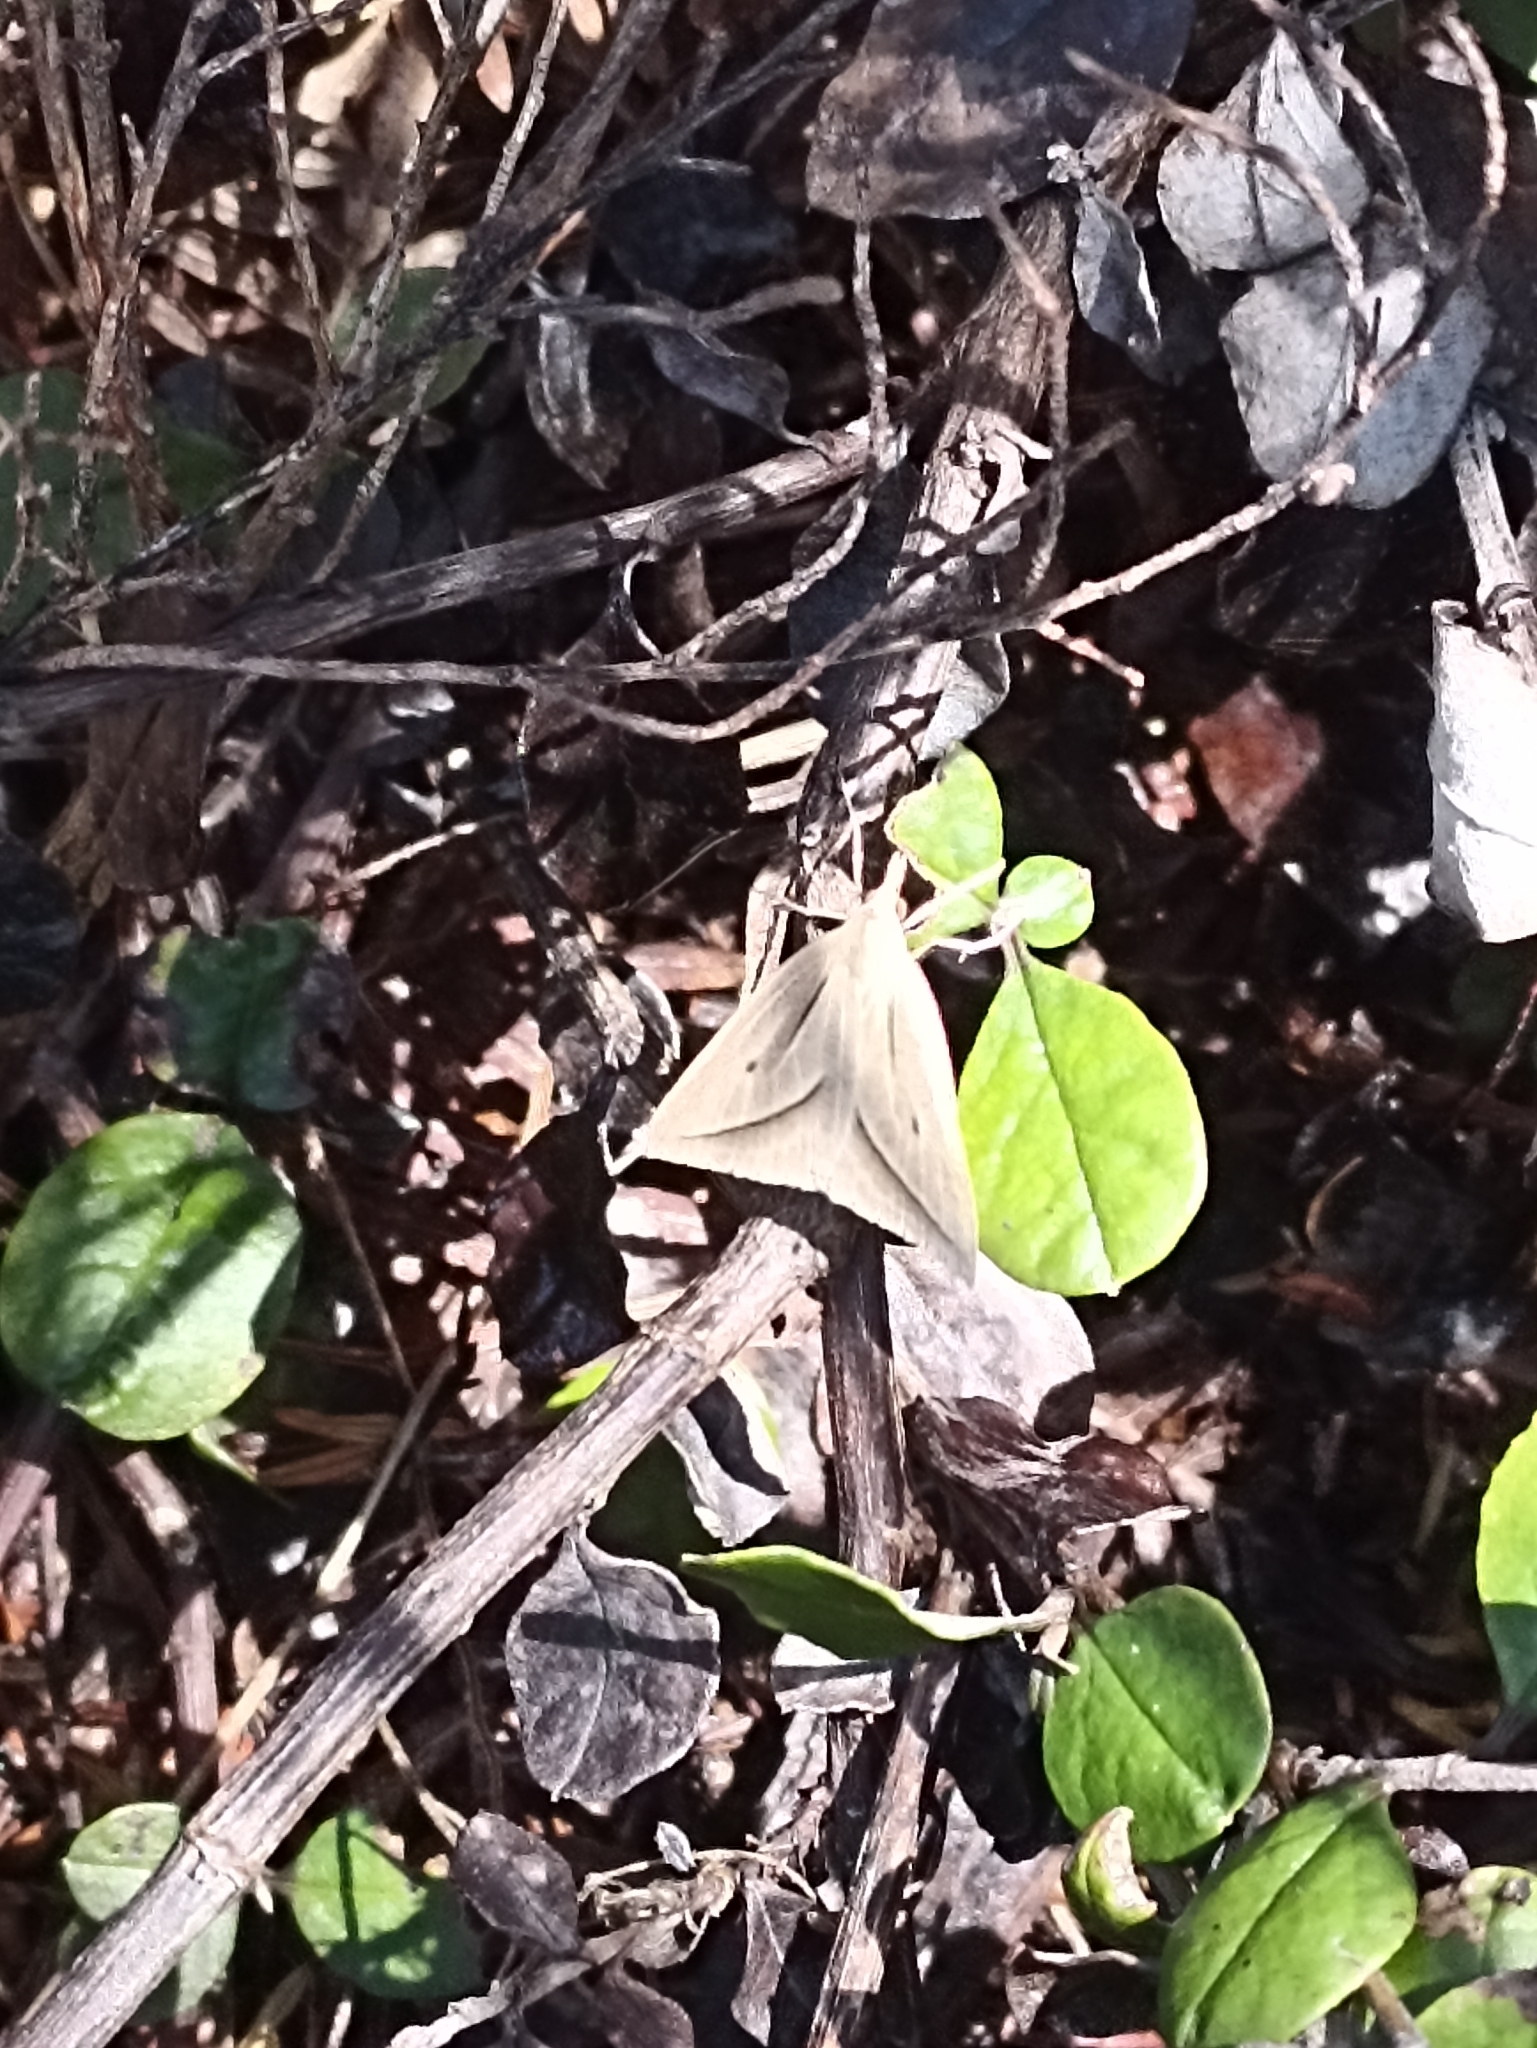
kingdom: Animalia
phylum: Arthropoda
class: Insecta
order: Lepidoptera
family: Geometridae
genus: Samana
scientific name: Samana falcatella
